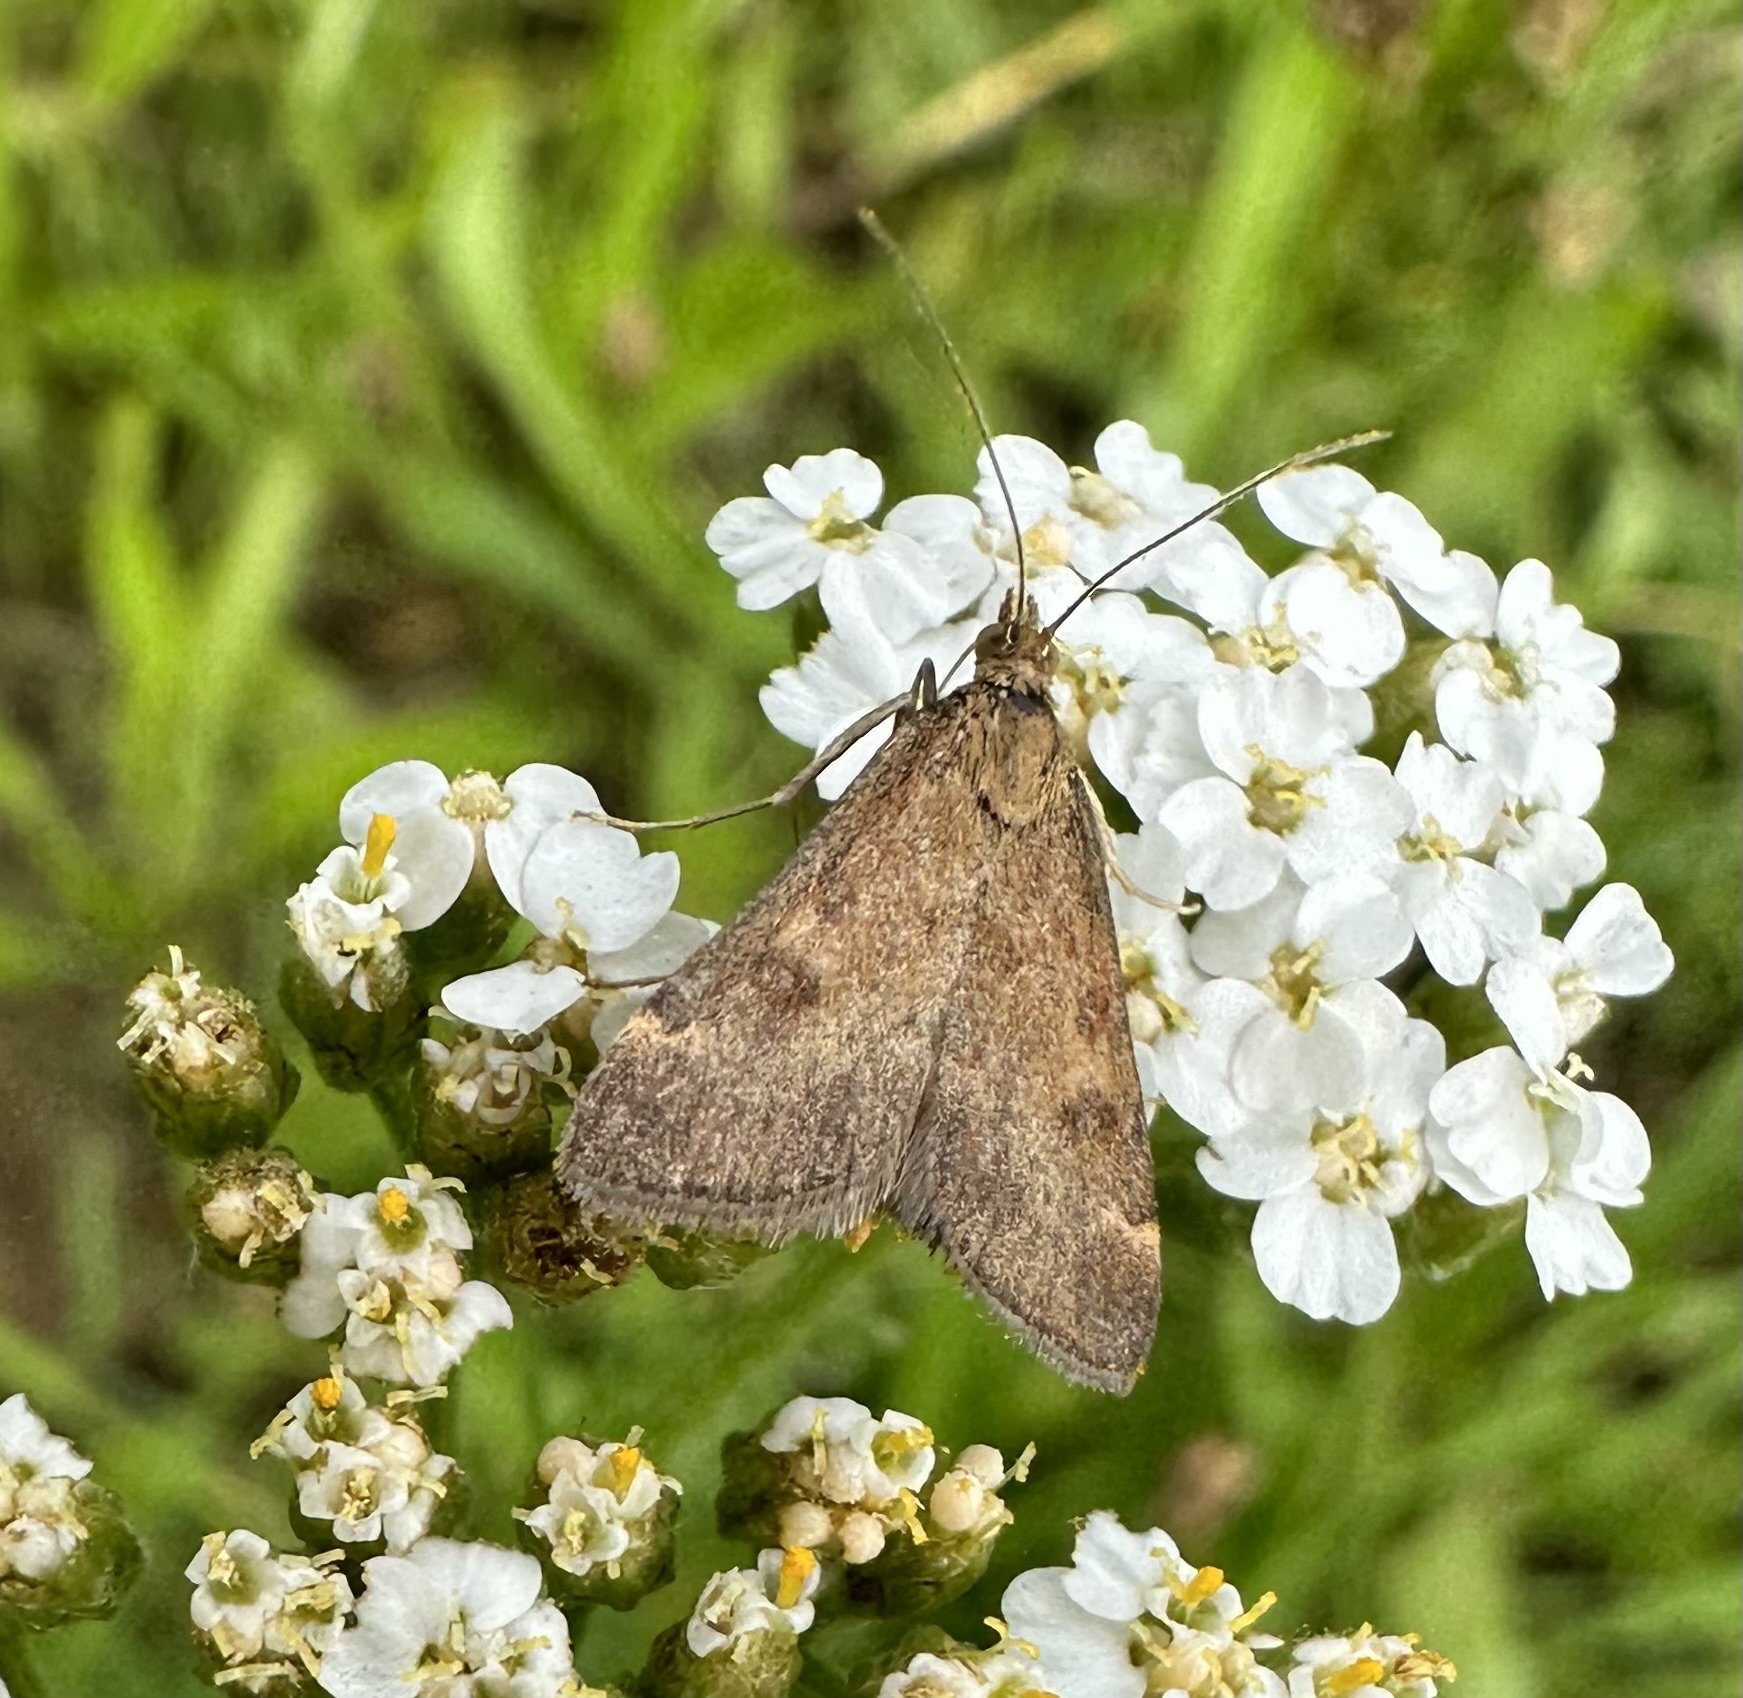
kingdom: Animalia
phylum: Arthropoda
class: Insecta
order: Lepidoptera
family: Crambidae
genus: Pyrausta
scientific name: Pyrausta despicata
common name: Straw-barred pearl
